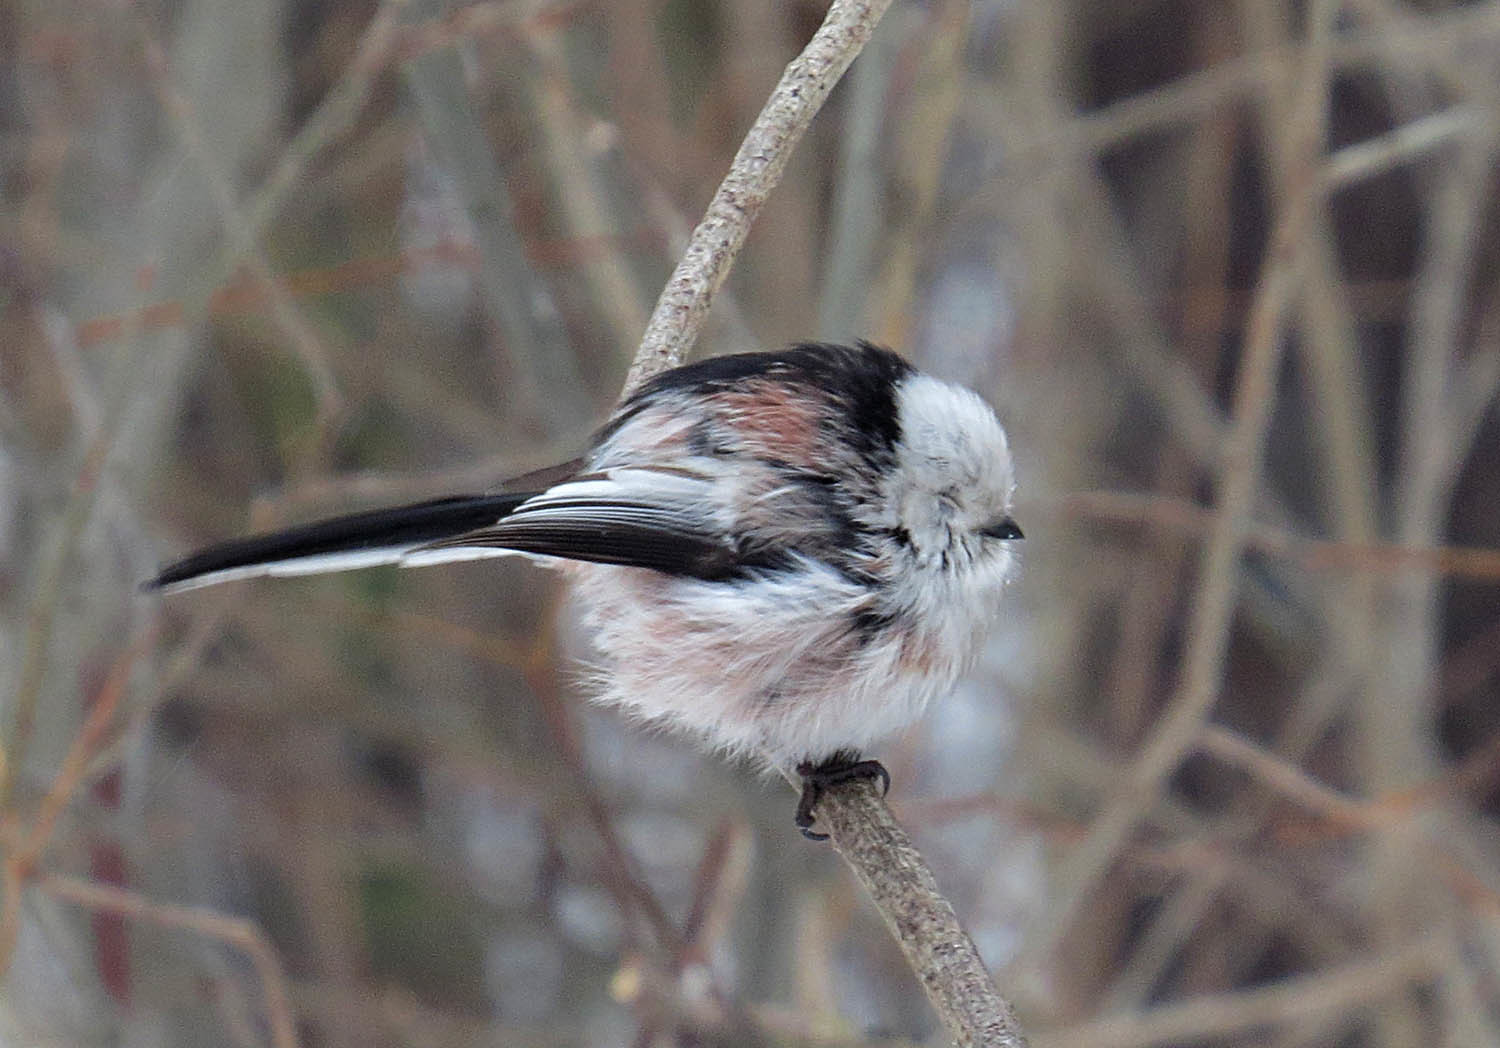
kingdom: Animalia
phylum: Chordata
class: Aves
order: Passeriformes
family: Aegithalidae
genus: Aegithalos
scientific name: Aegithalos caudatus
